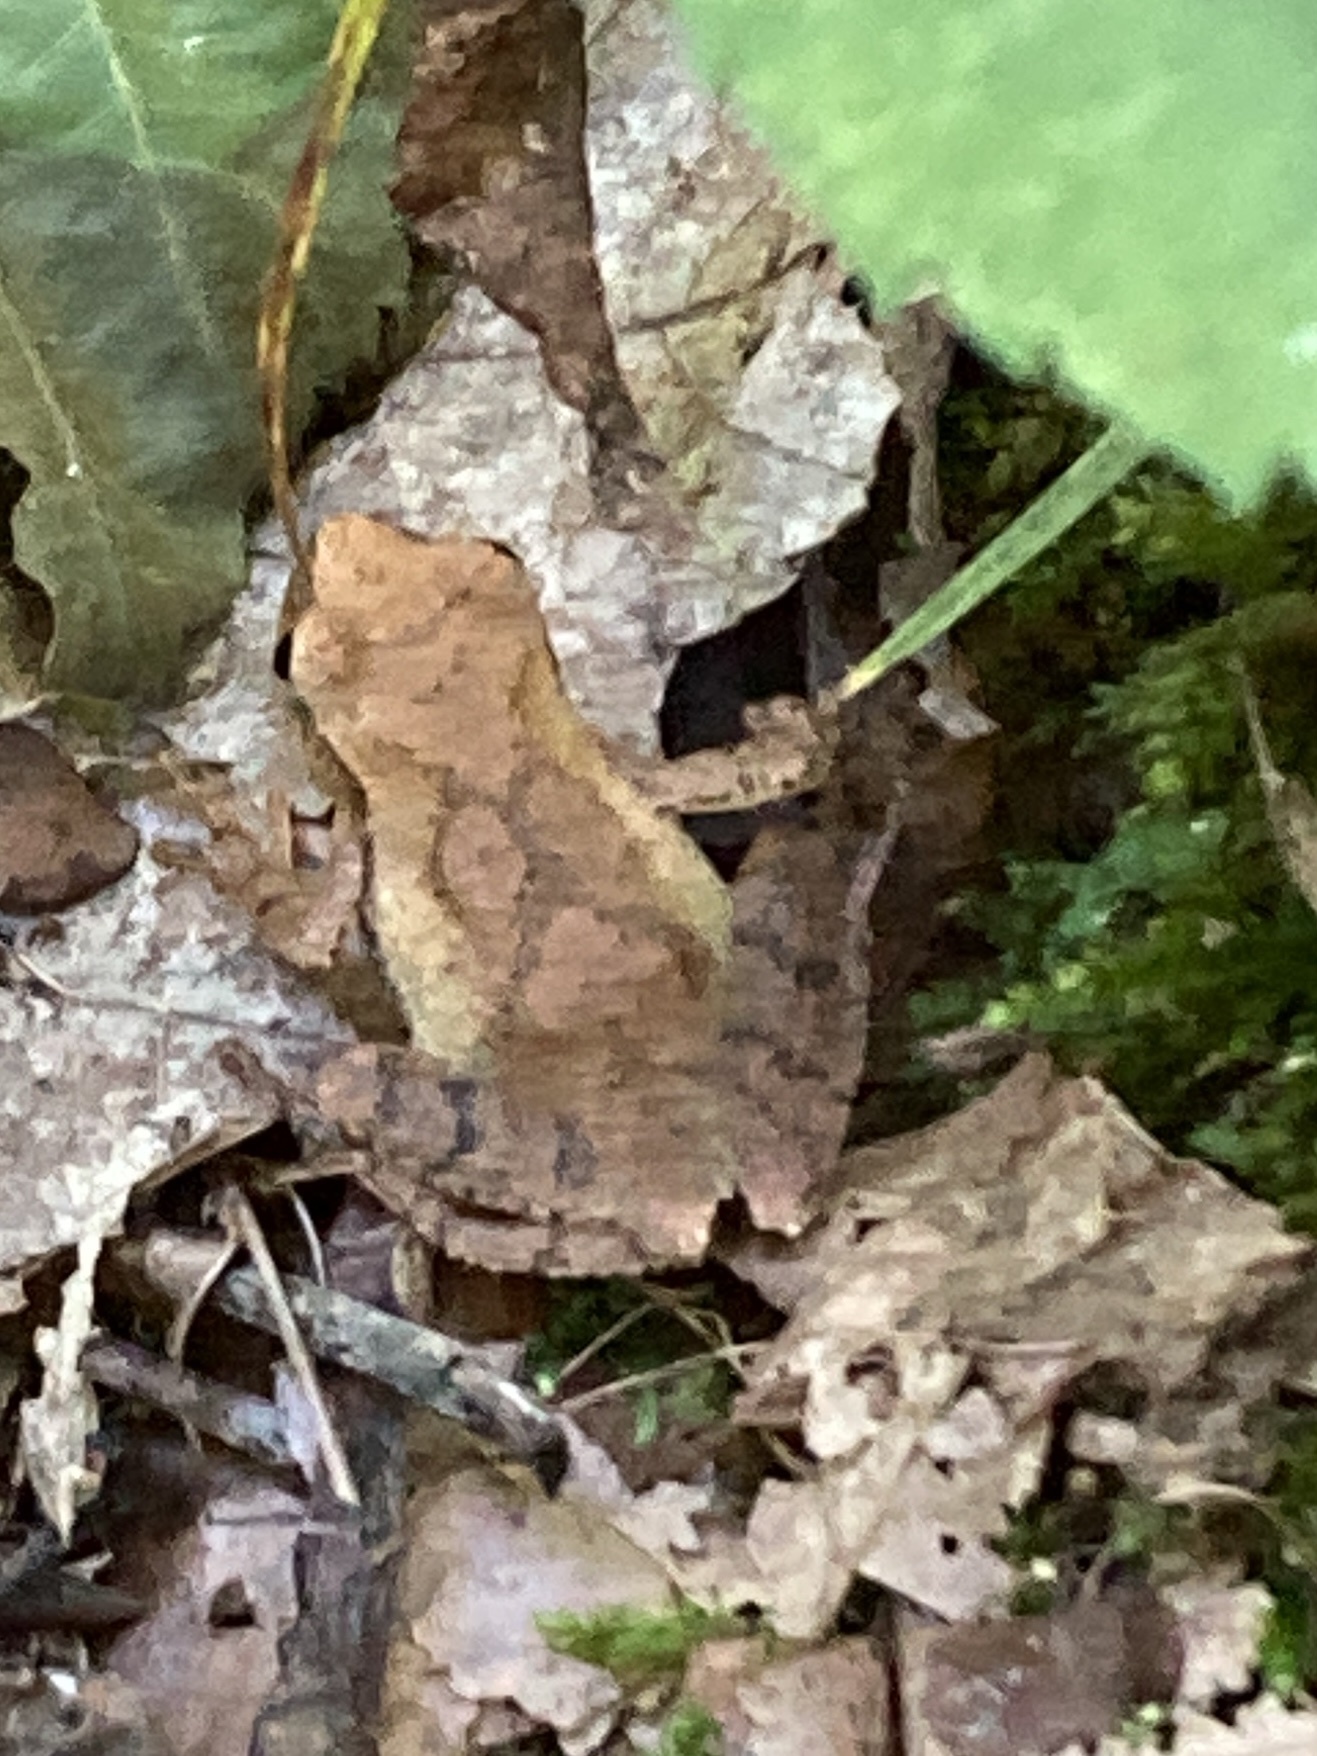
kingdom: Animalia
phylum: Chordata
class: Amphibia
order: Anura
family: Hylidae
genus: Pseudacris
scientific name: Pseudacris crucifer
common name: Spring peeper
